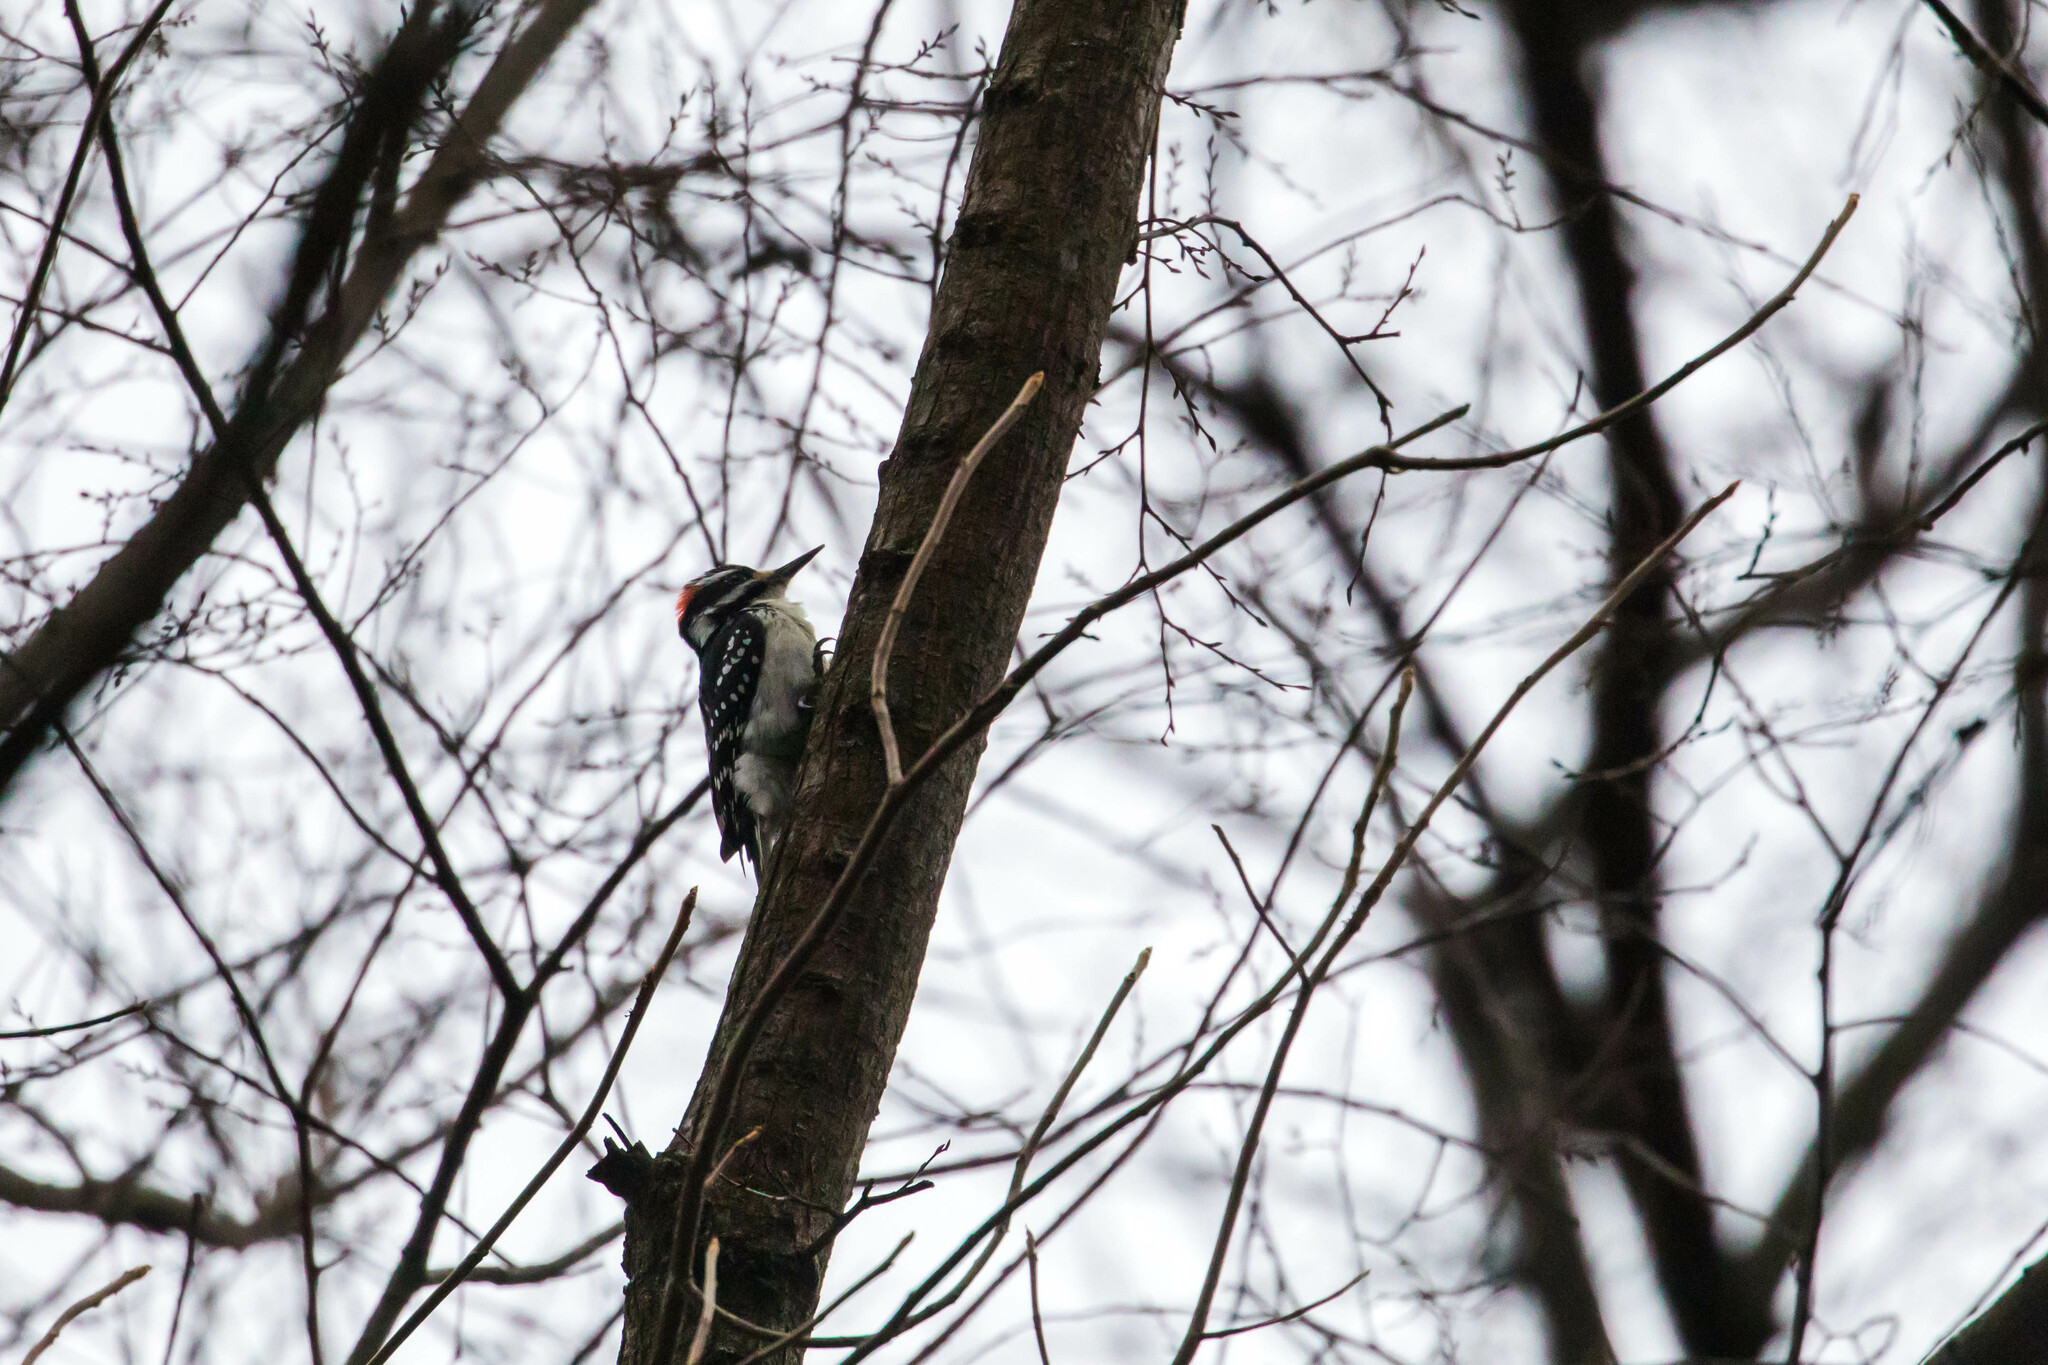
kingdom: Animalia
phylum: Chordata
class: Aves
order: Piciformes
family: Picidae
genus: Leuconotopicus
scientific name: Leuconotopicus villosus
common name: Hairy woodpecker
